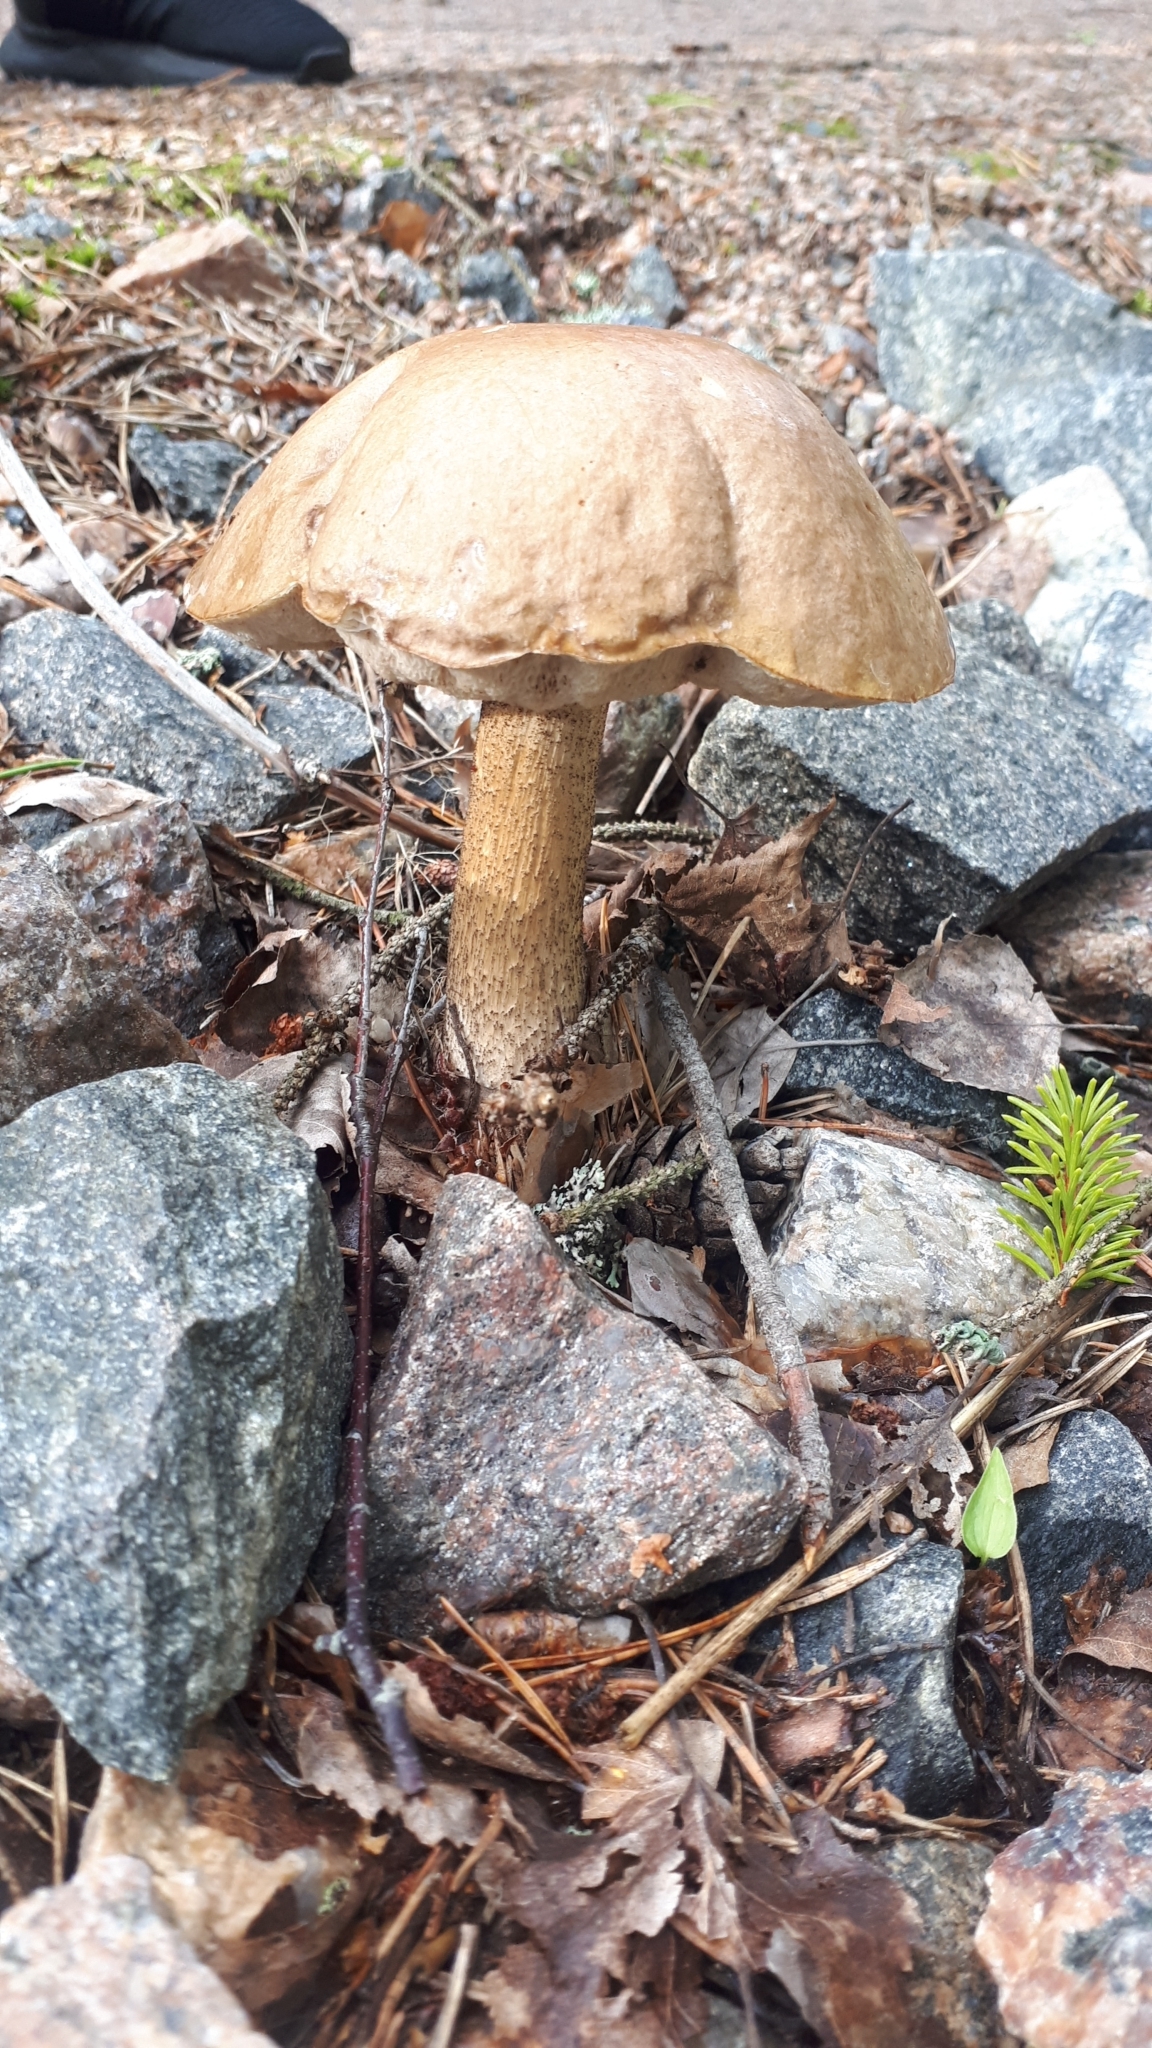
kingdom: Fungi
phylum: Basidiomycota
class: Agaricomycetes
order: Boletales
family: Boletaceae
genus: Leccinum
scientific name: Leccinum scabrum
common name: Blushing bolete
